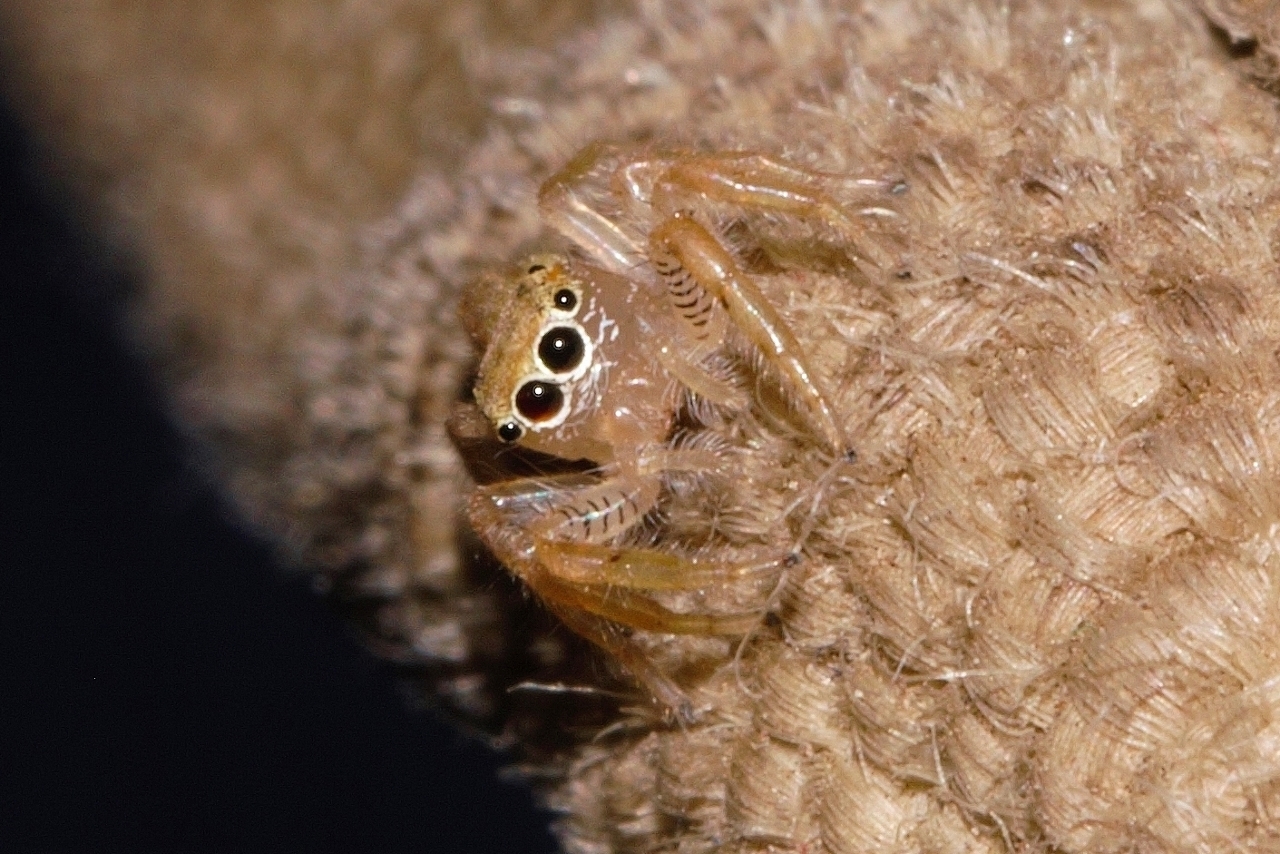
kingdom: Animalia
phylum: Arthropoda
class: Arachnida
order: Araneae
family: Salticidae
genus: Thyene
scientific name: Thyene ogdeni
